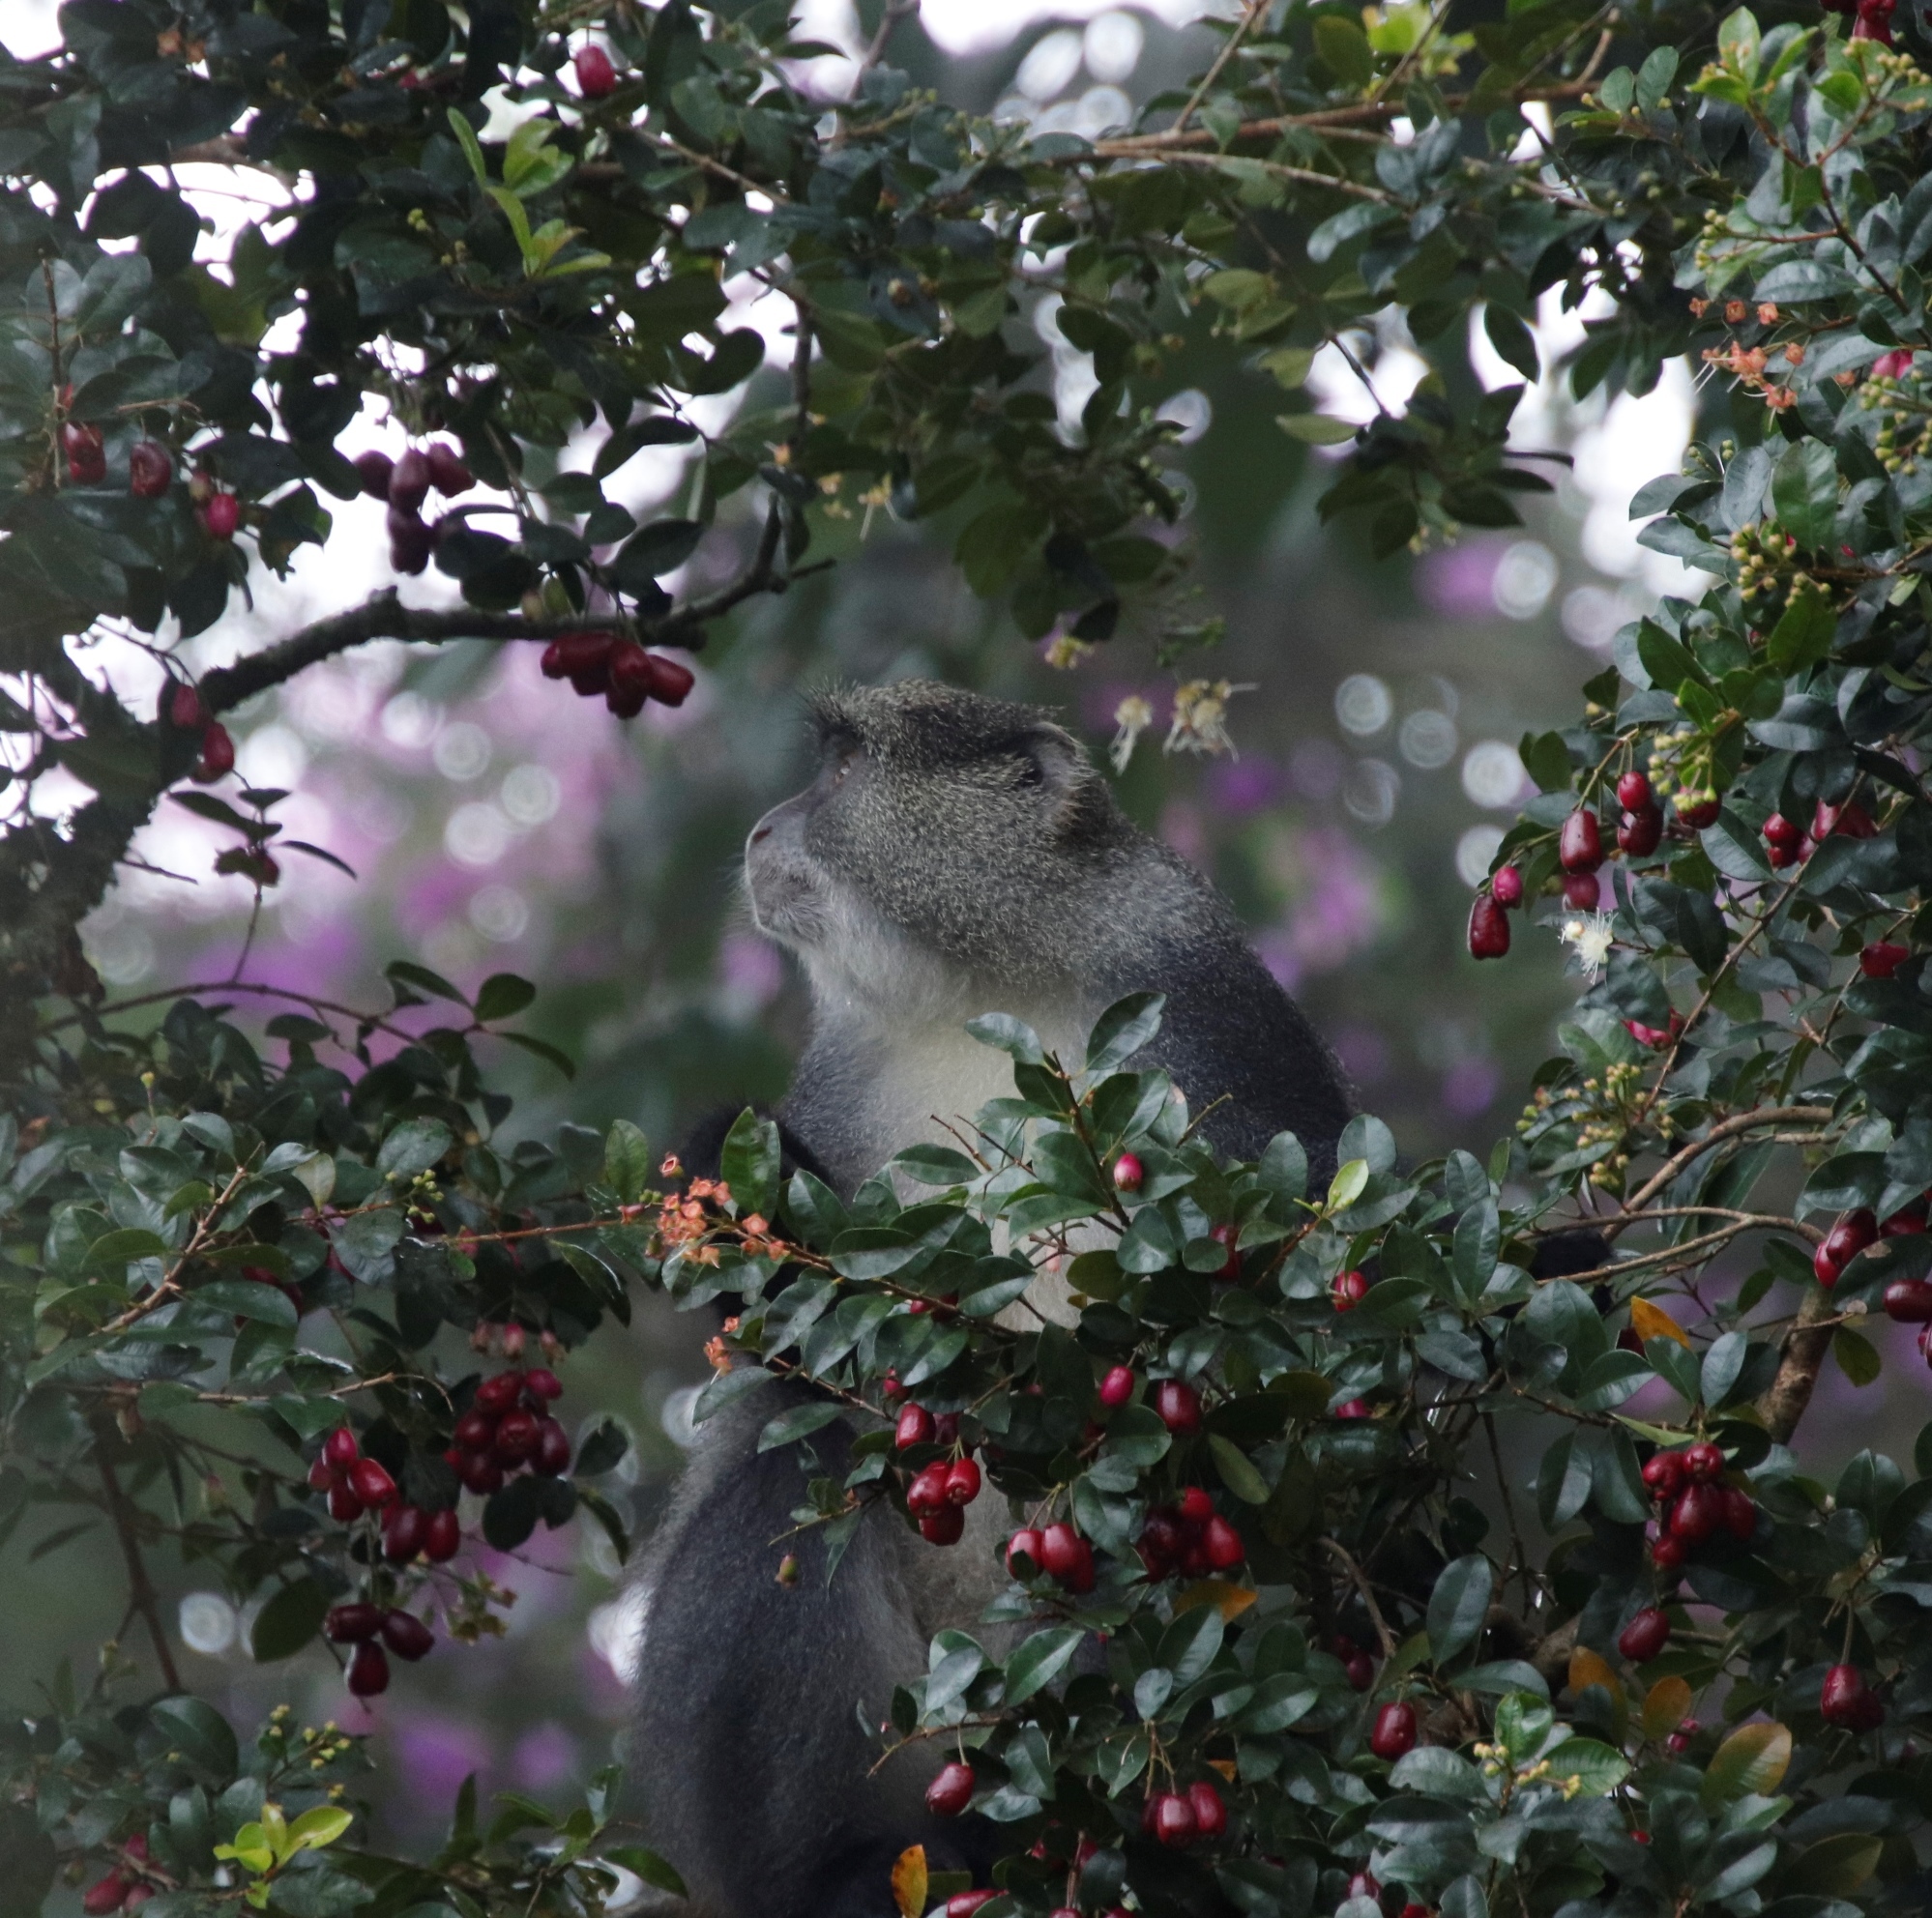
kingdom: Animalia
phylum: Chordata
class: Mammalia
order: Primates
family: Cercopithecidae
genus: Cercopithecus
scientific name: Cercopithecus mitis
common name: Blue monkey
